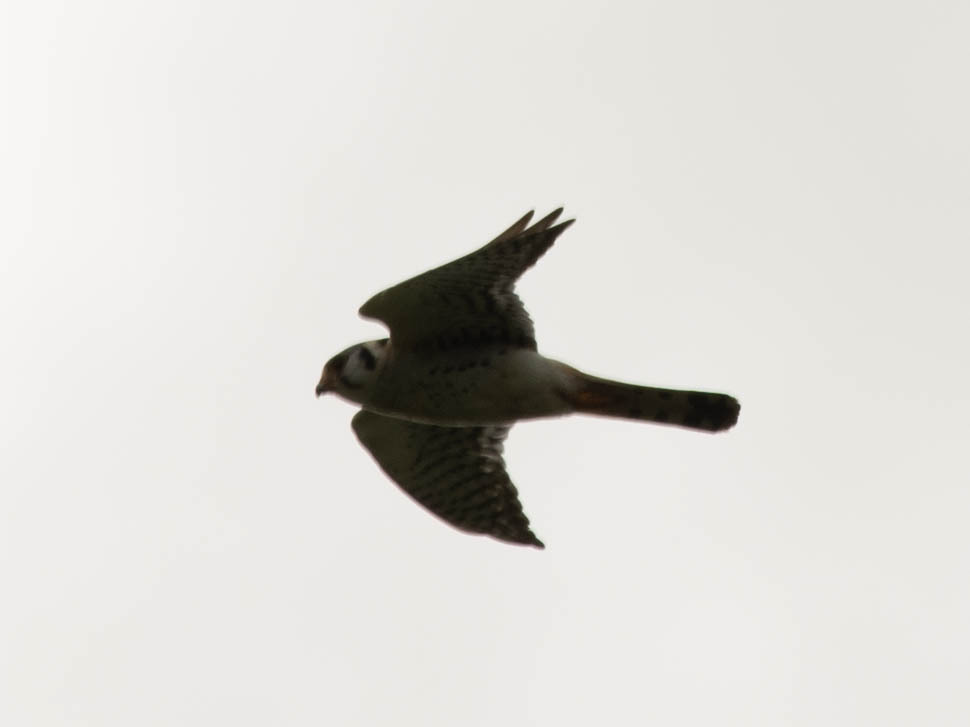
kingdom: Animalia
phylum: Chordata
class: Aves
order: Falconiformes
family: Falconidae
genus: Falco
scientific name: Falco sparverius
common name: American kestrel
